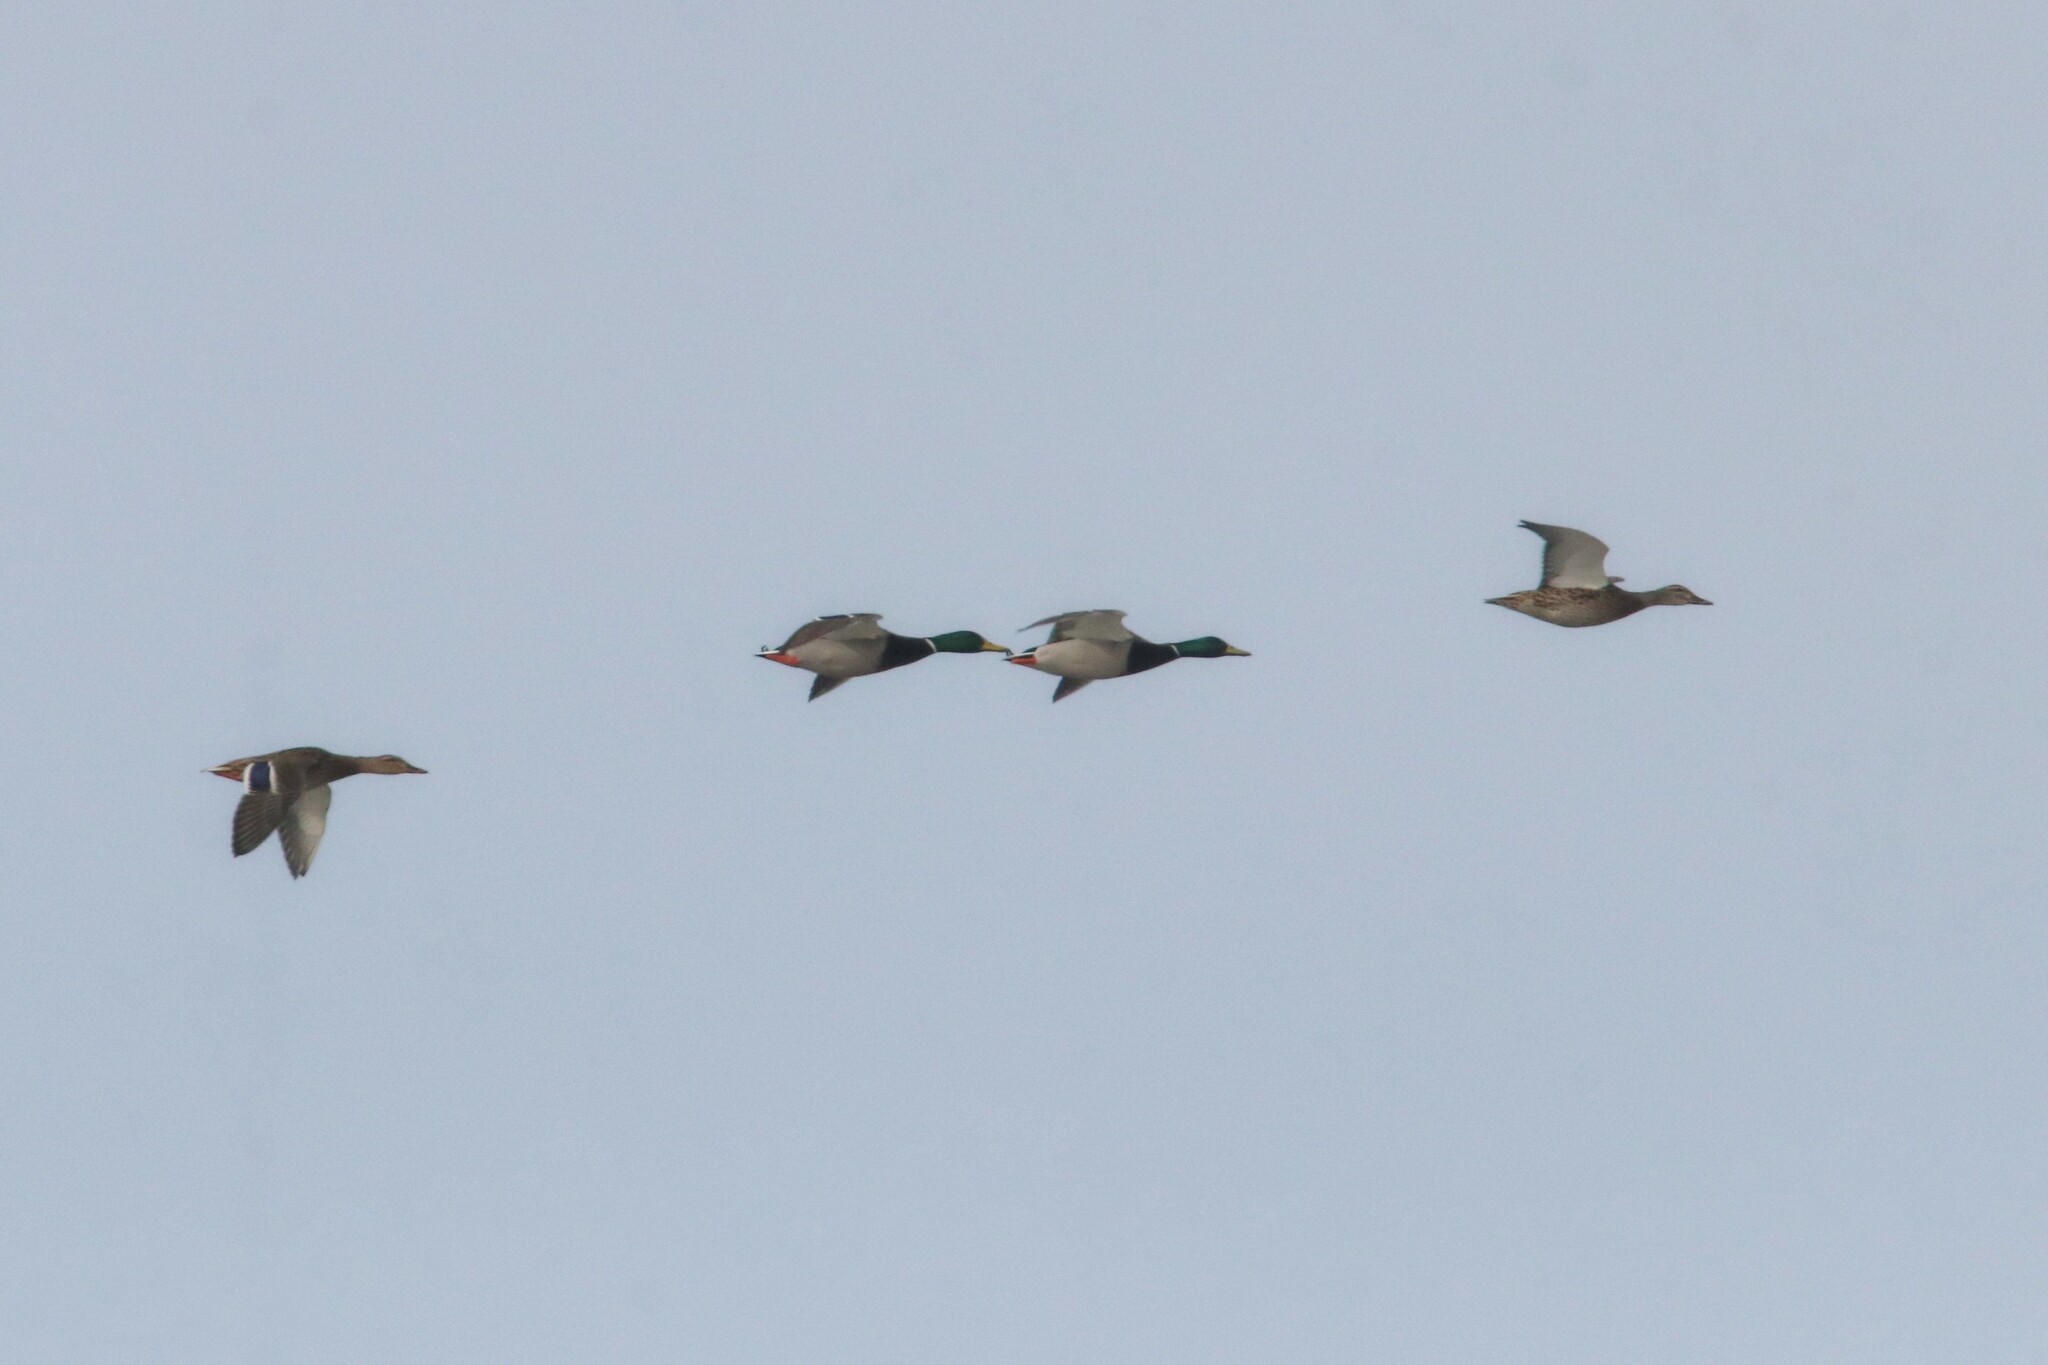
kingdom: Animalia
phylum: Chordata
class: Aves
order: Anseriformes
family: Anatidae
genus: Anas
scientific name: Anas platyrhynchos
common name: Mallard
